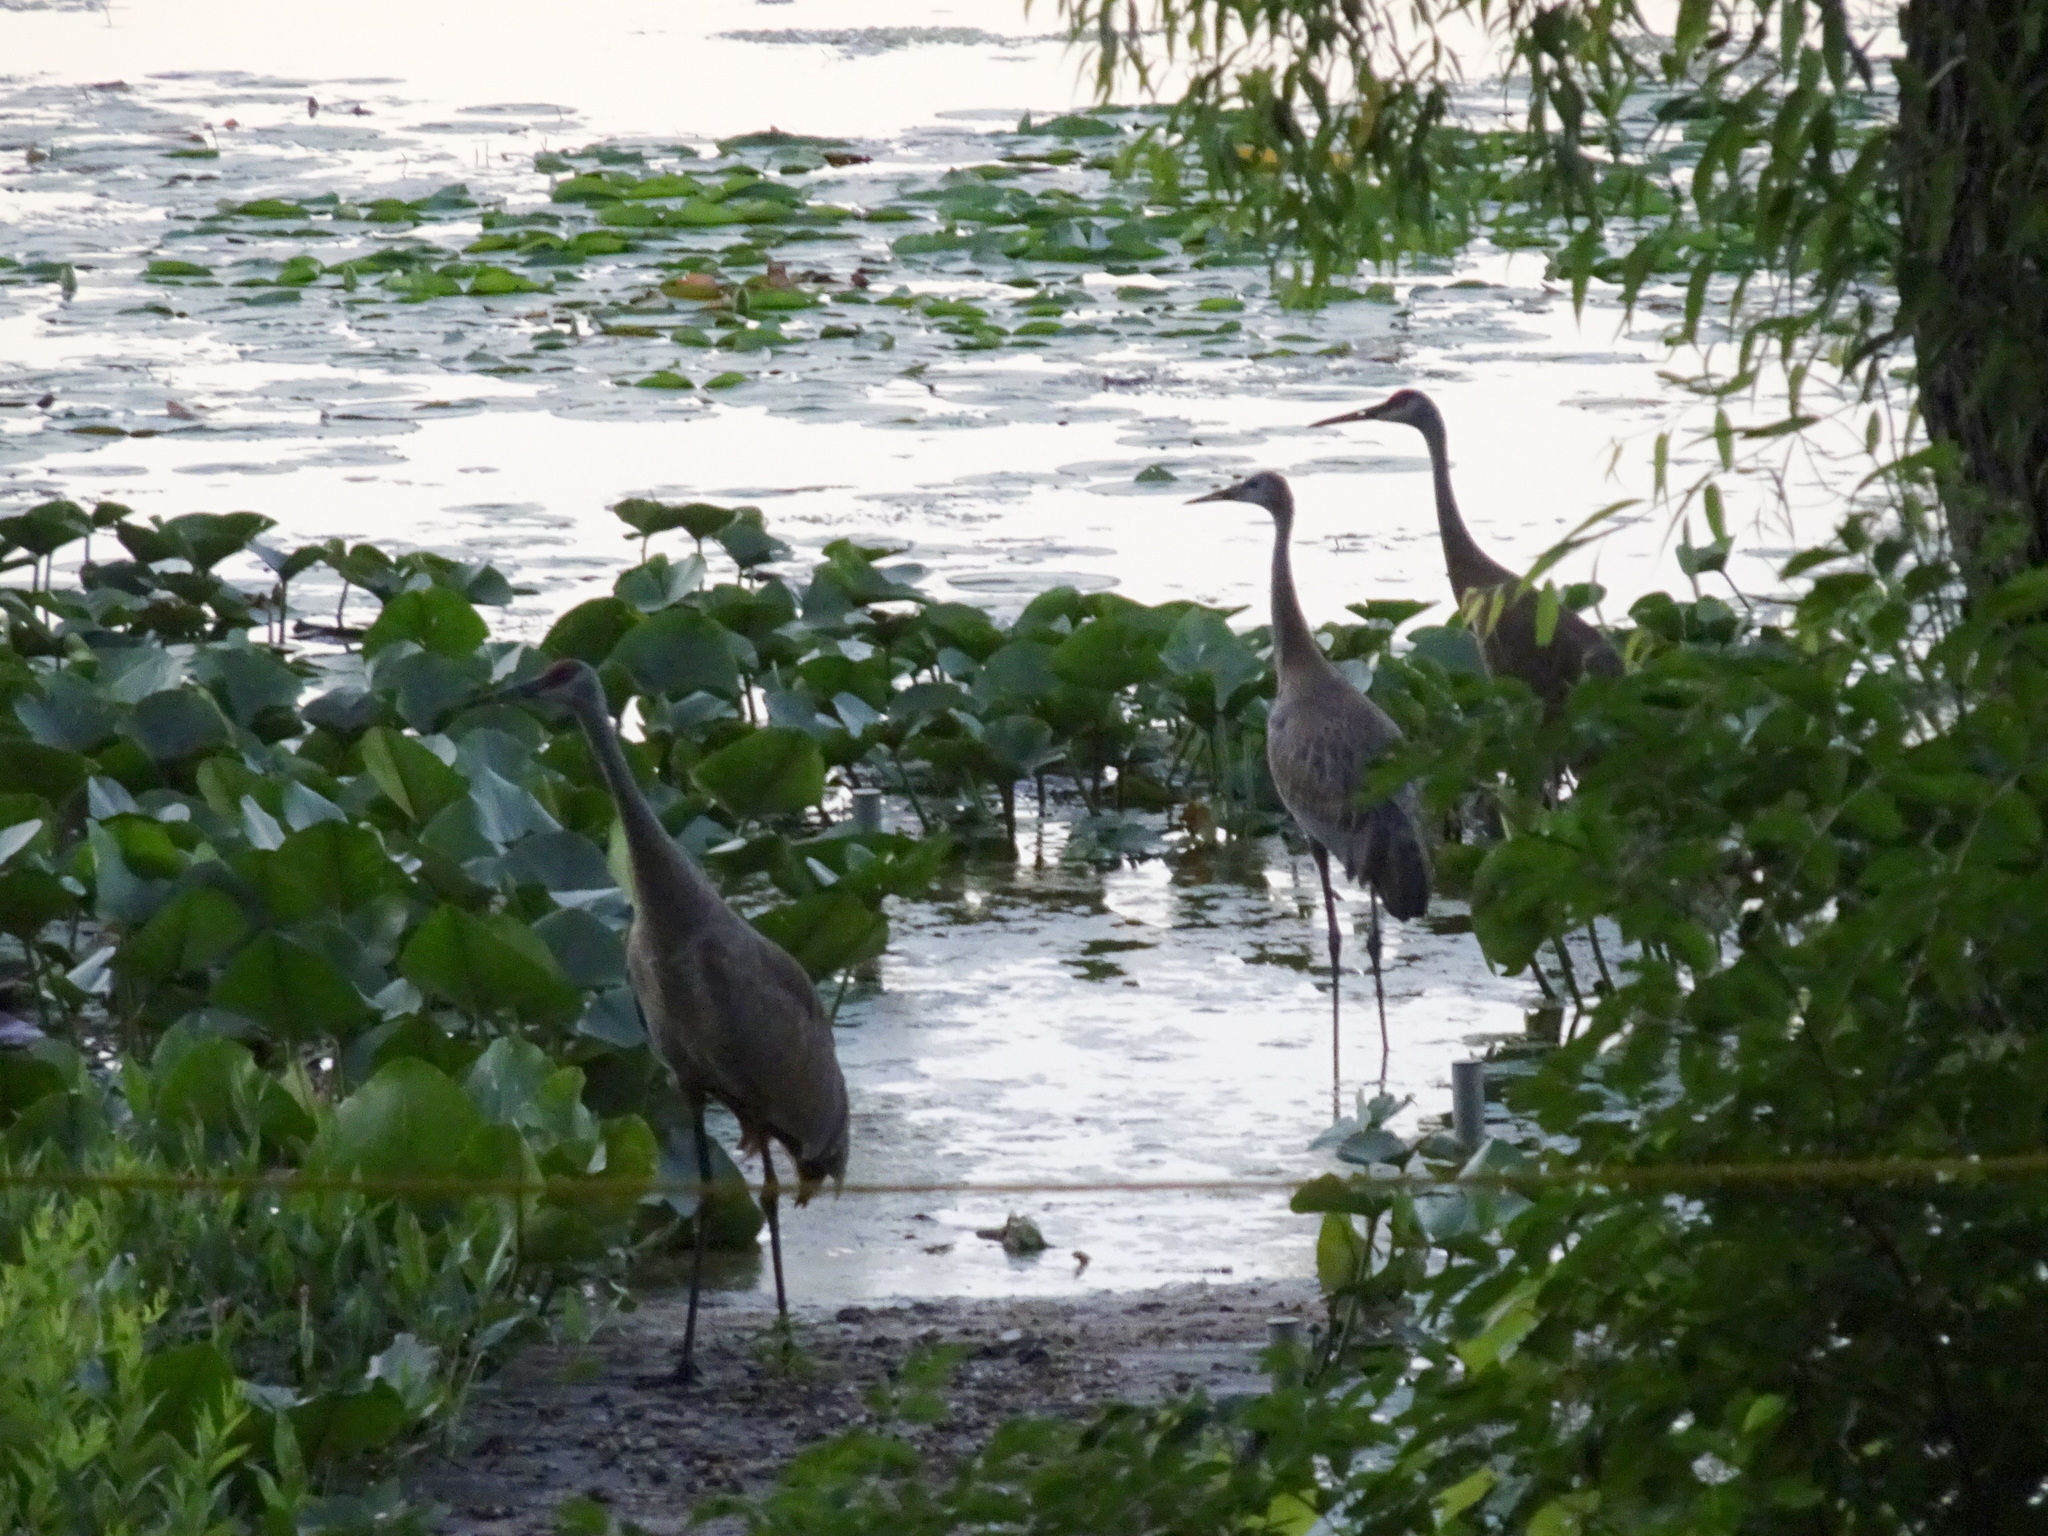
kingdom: Animalia
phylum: Chordata
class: Aves
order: Gruiformes
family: Gruidae
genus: Grus
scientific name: Grus canadensis
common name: Sandhill crane
